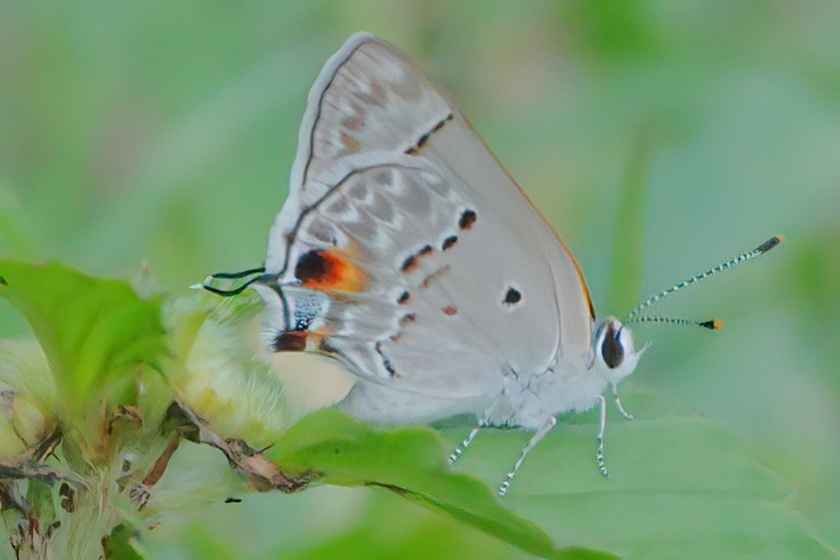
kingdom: Animalia
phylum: Arthropoda
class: Insecta
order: Lepidoptera
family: Lycaenidae
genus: Callicista
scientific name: Callicista columella
